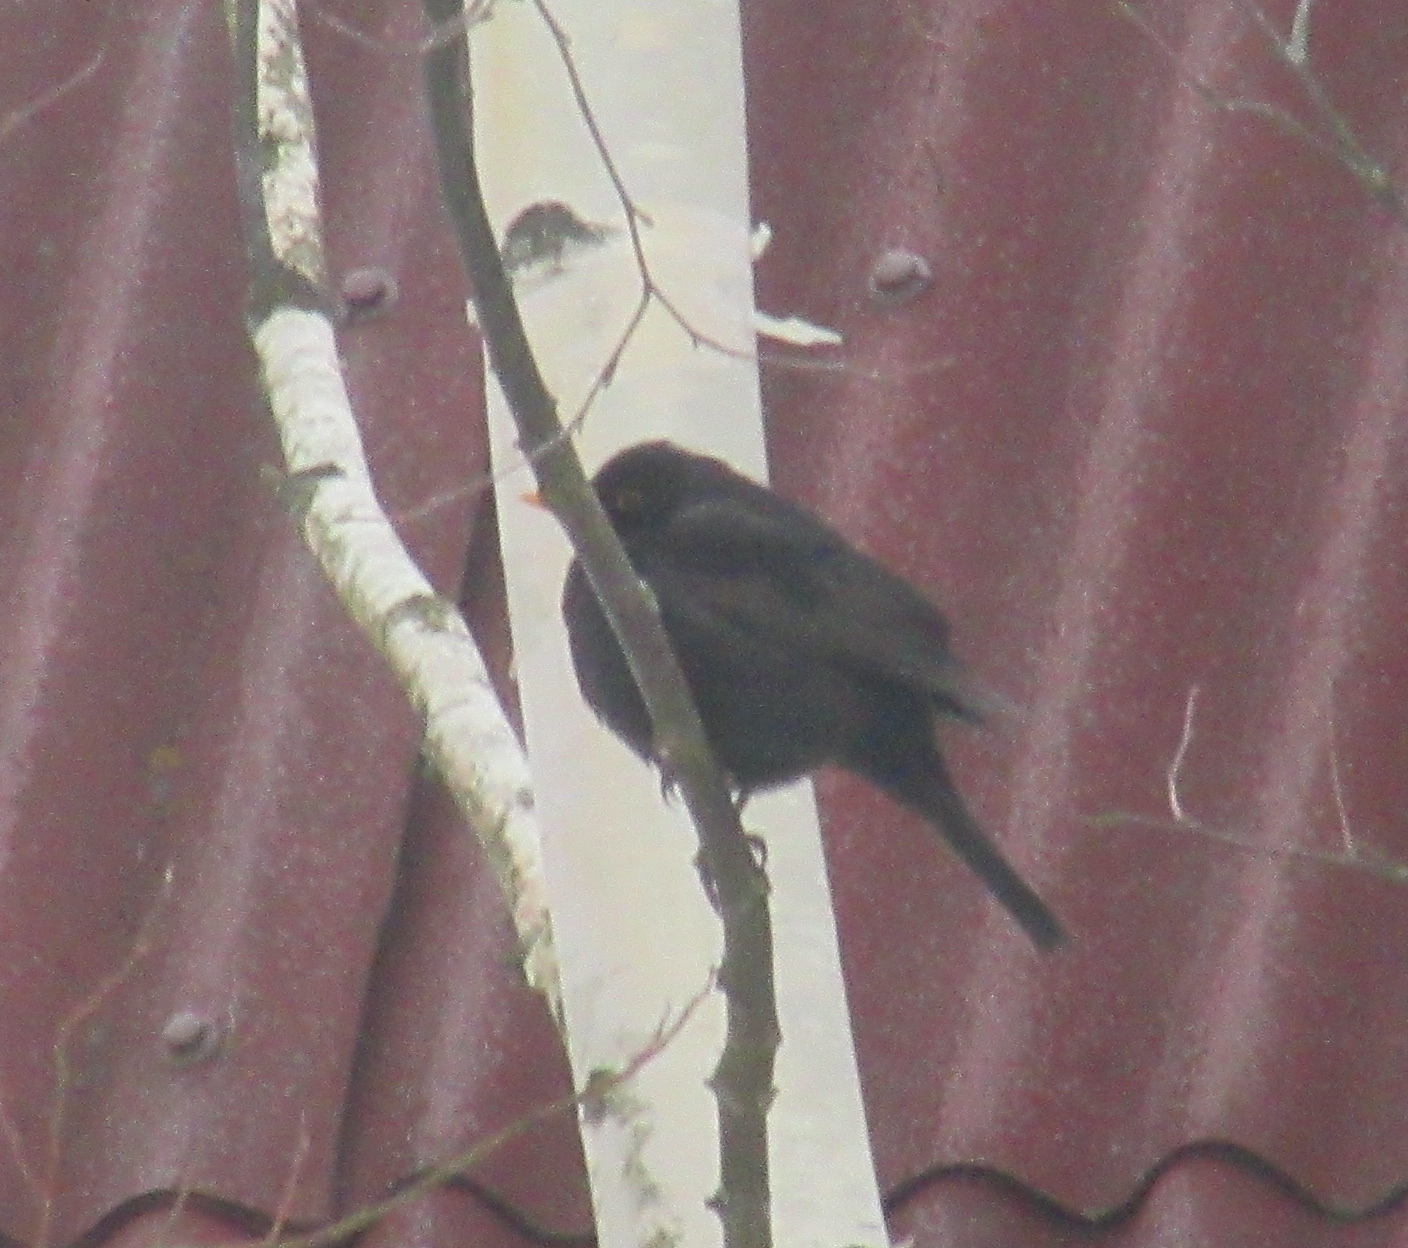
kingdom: Animalia
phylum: Chordata
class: Aves
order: Passeriformes
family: Turdidae
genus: Turdus
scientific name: Turdus merula
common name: Common blackbird
